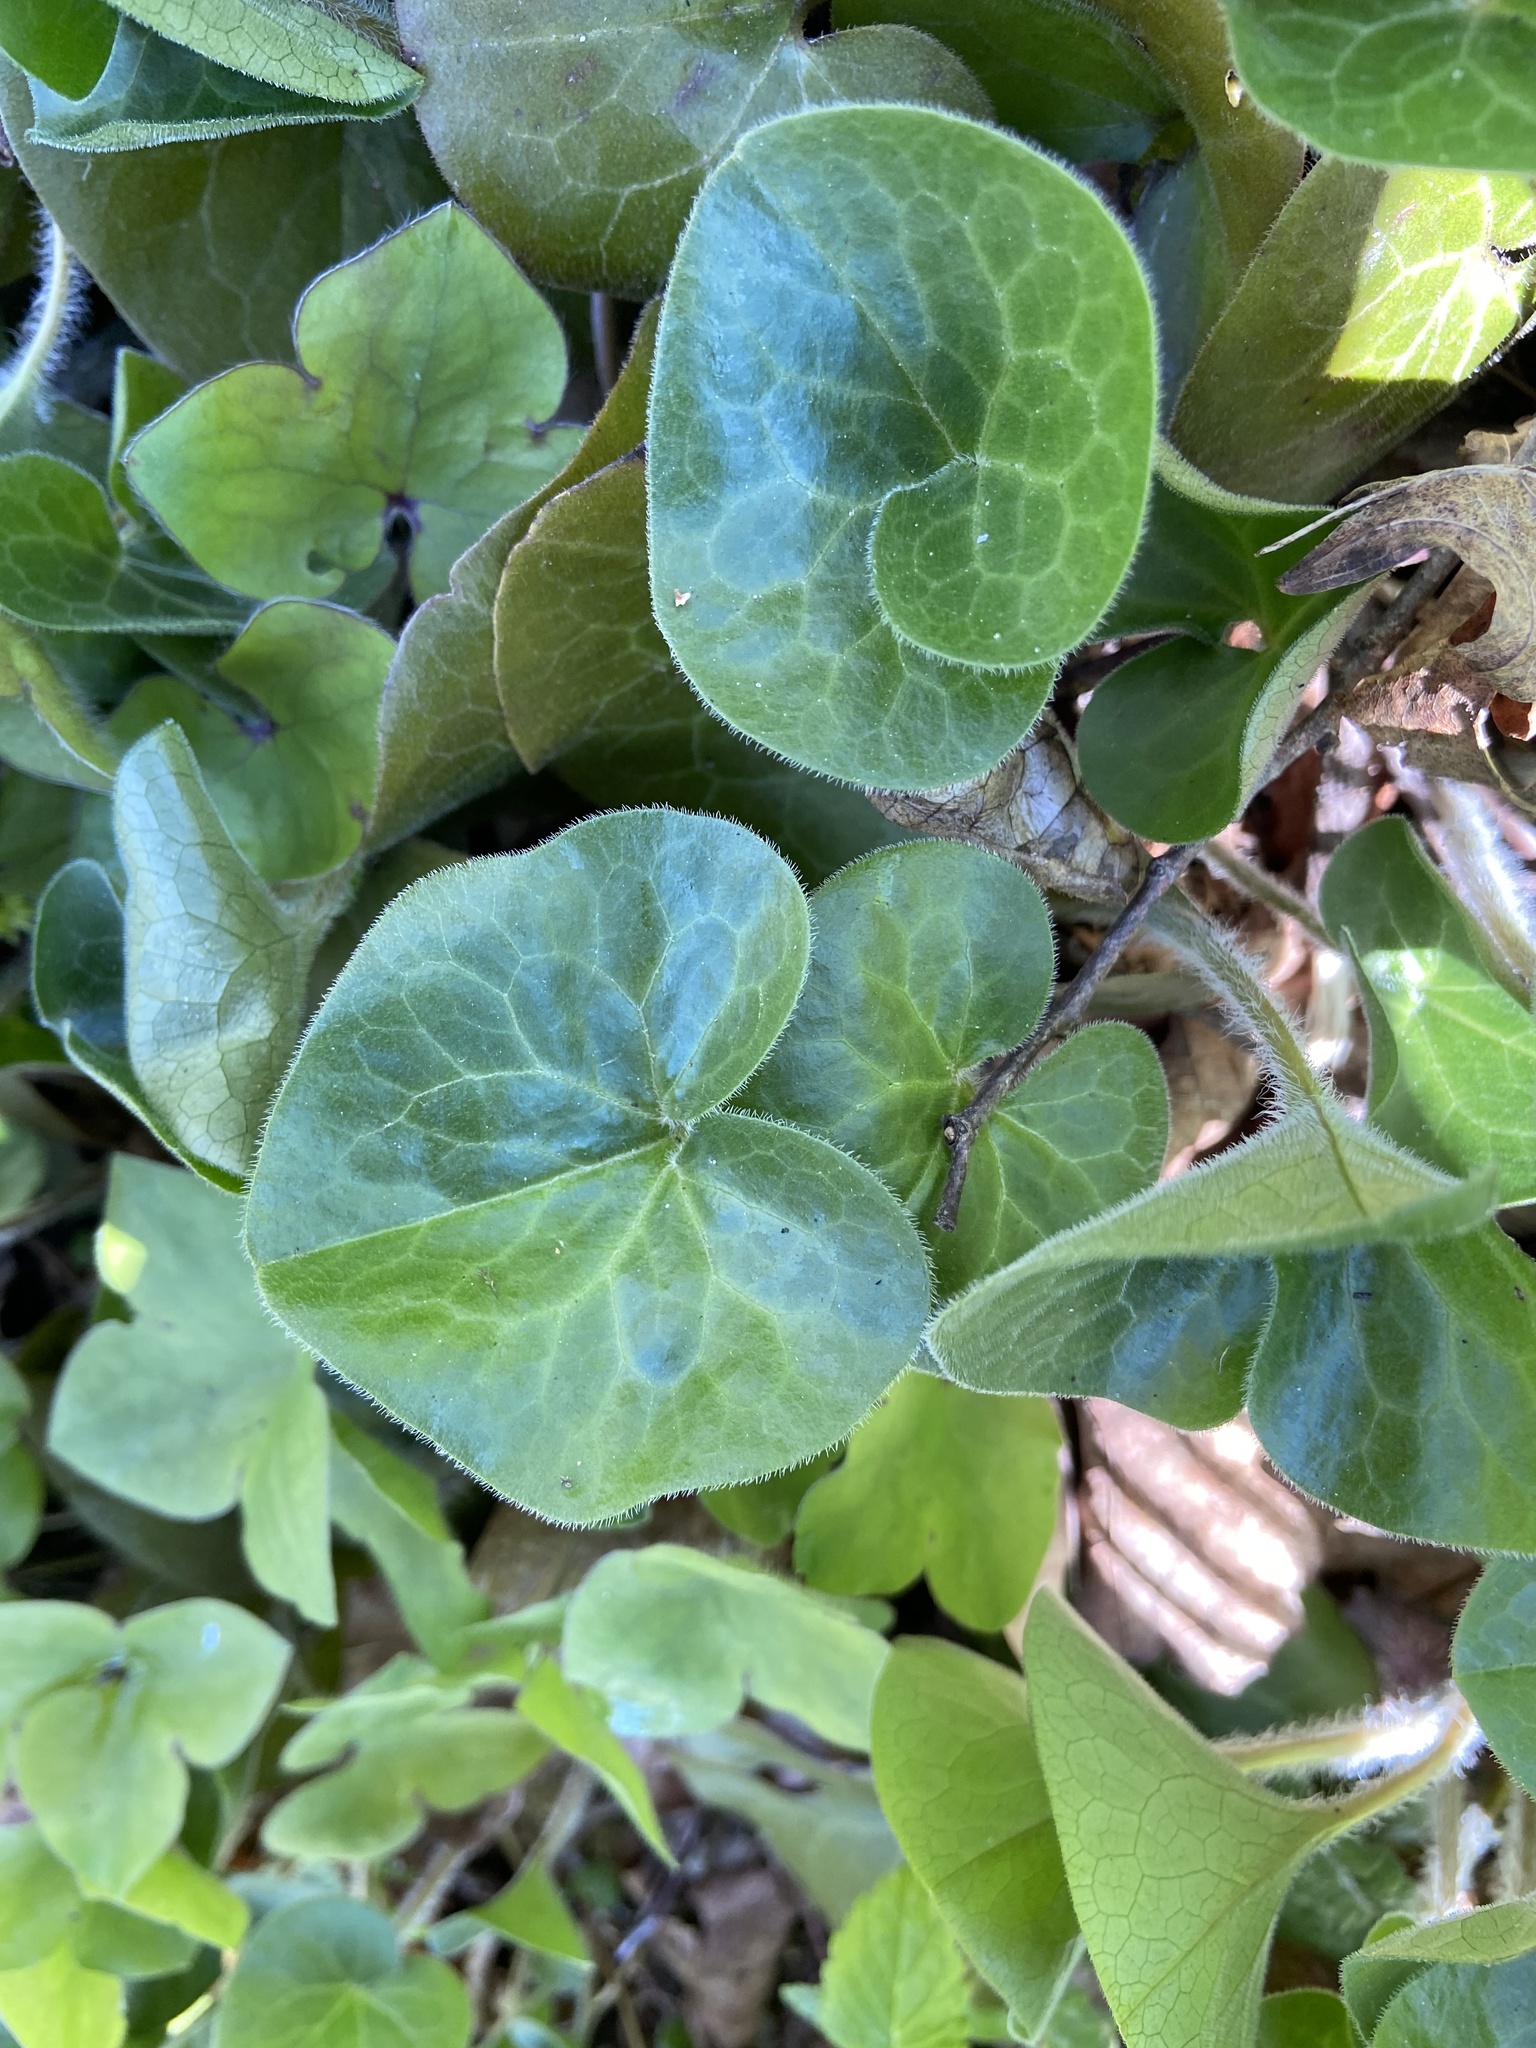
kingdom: Plantae
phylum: Tracheophyta
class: Magnoliopsida
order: Piperales
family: Aristolochiaceae
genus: Asarum
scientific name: Asarum europaeum
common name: Asarabacca
